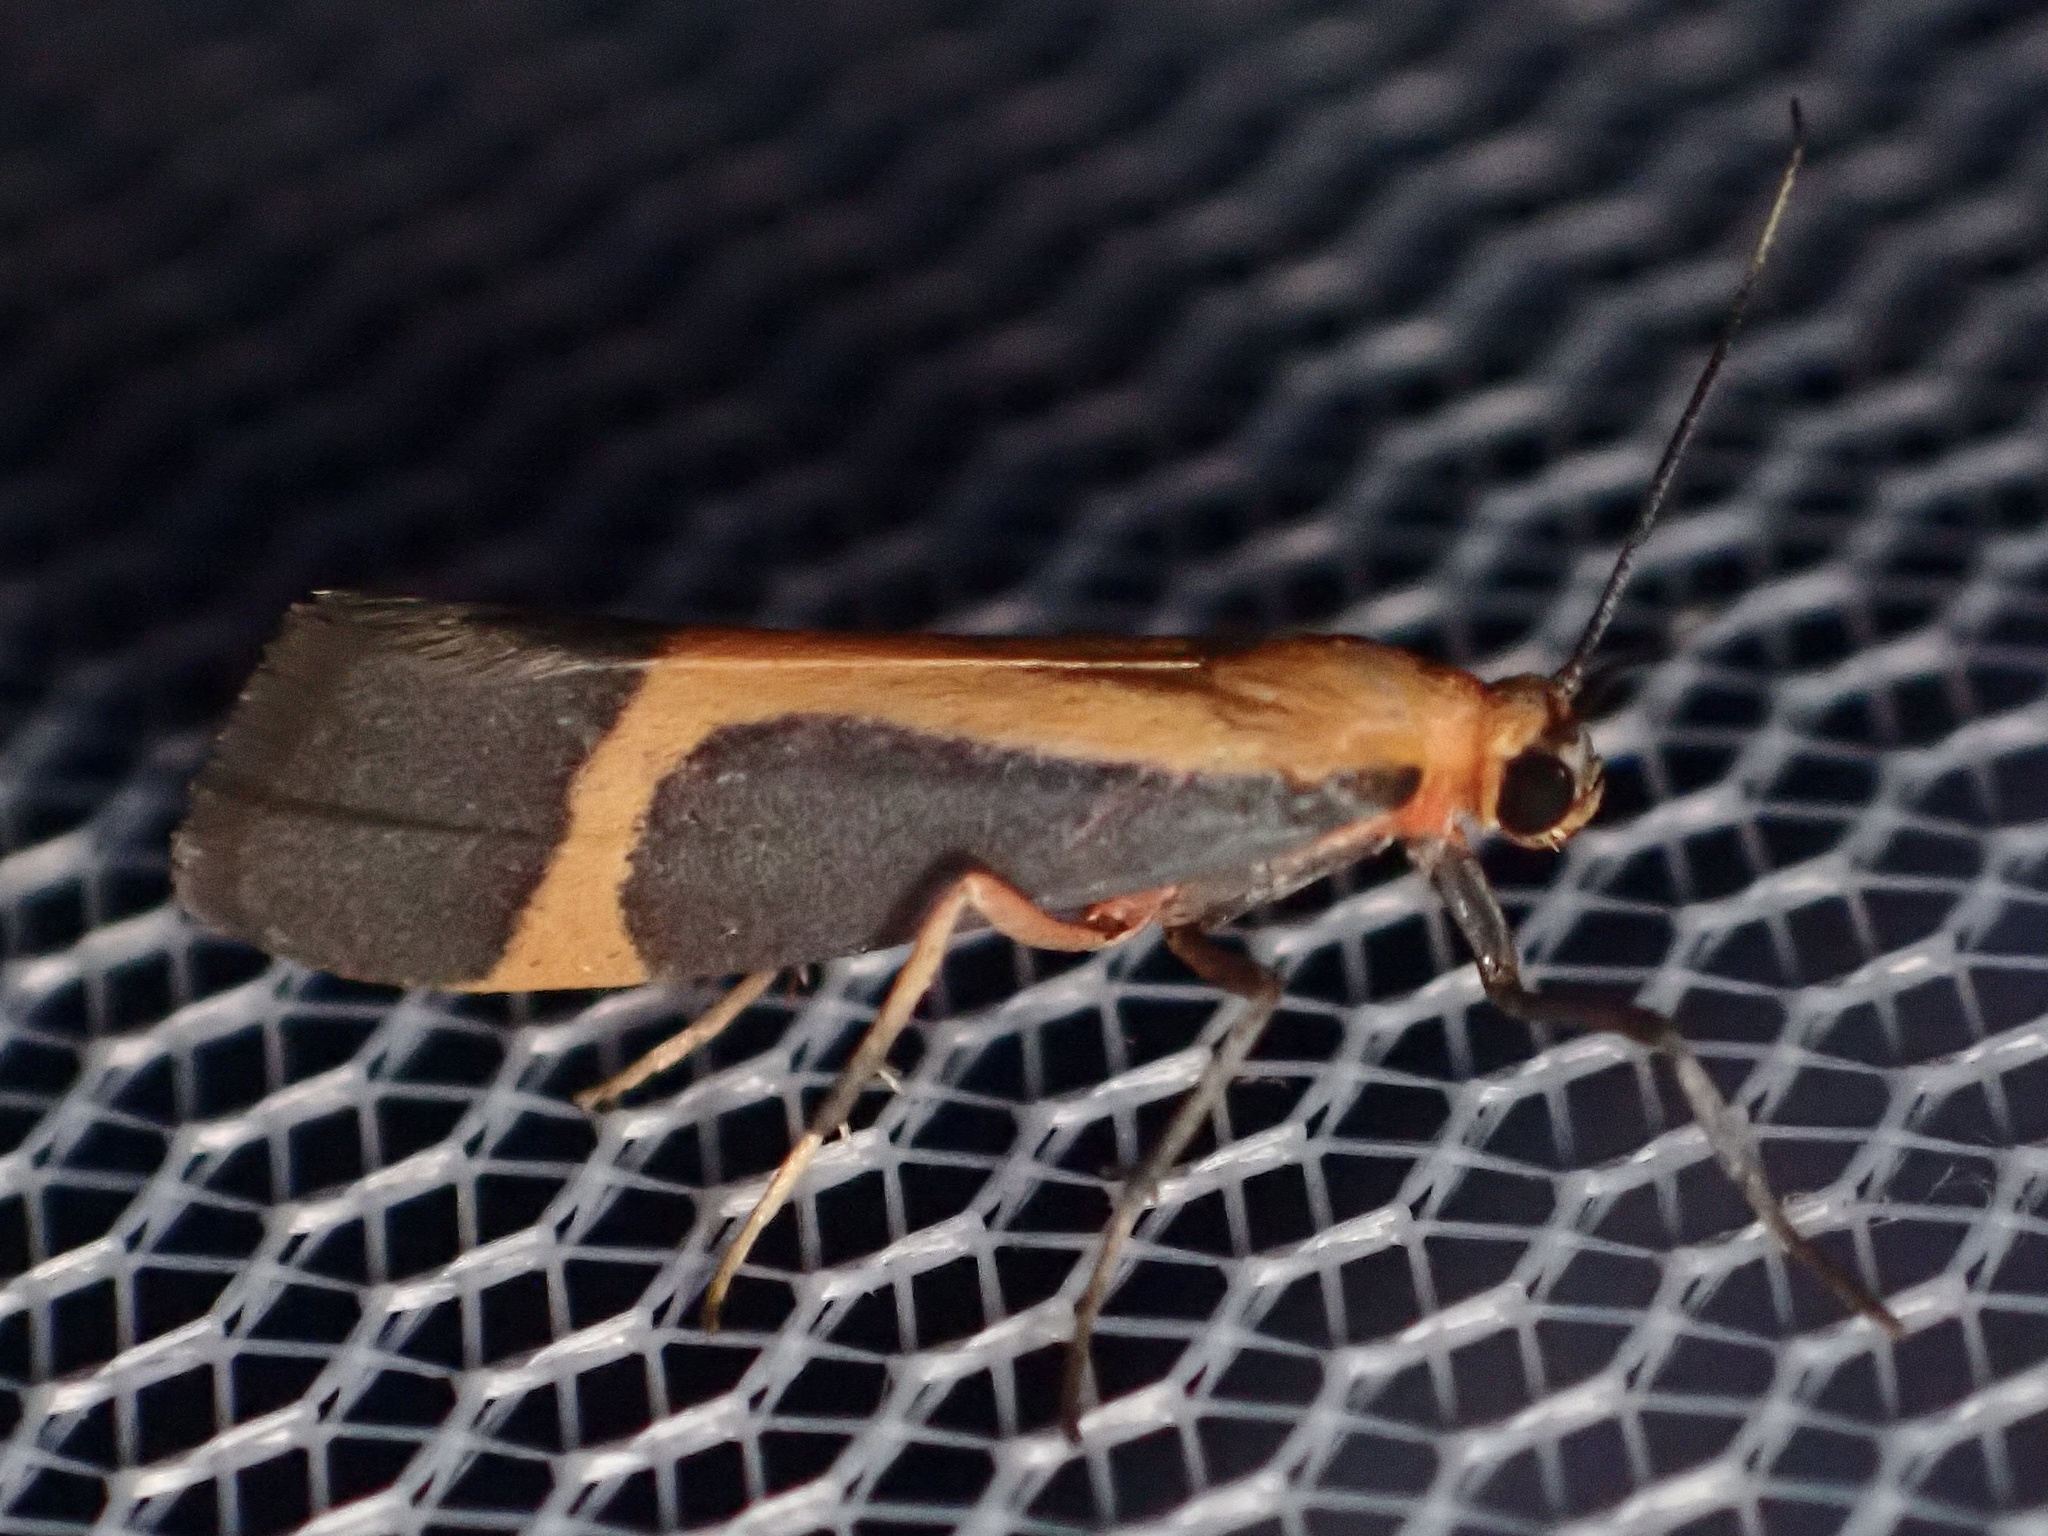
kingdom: Animalia
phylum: Arthropoda
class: Insecta
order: Lepidoptera
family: Erebidae
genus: Cisthene
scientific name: Cisthene angelus
